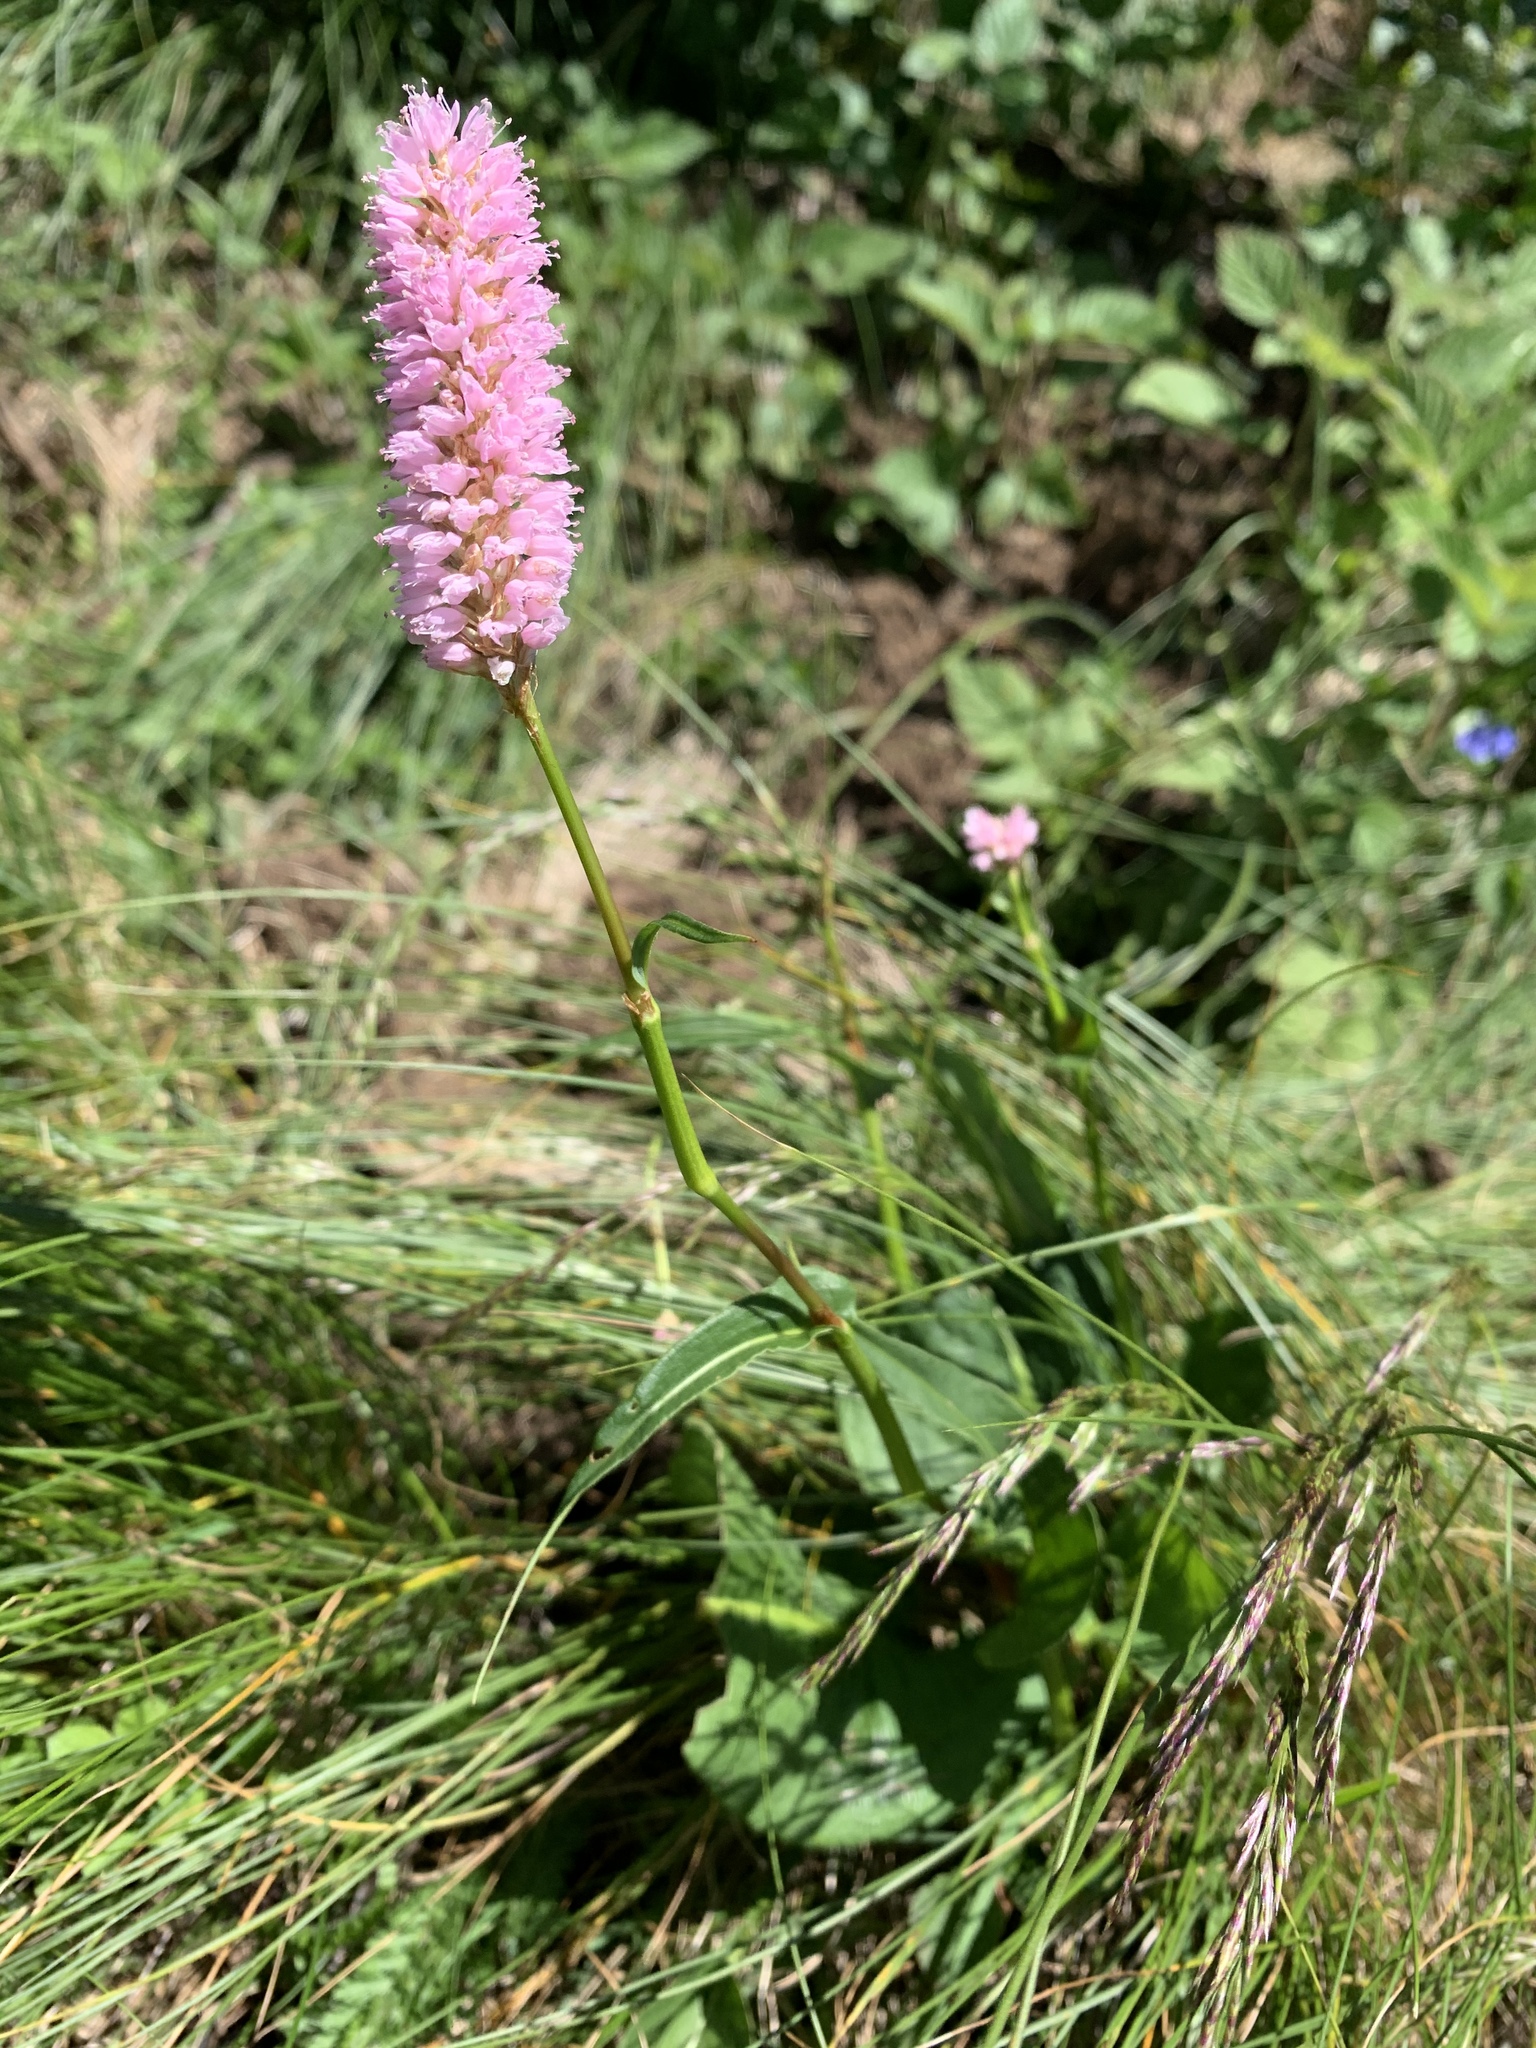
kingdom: Plantae
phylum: Tracheophyta
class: Magnoliopsida
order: Caryophyllales
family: Polygonaceae
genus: Bistorta
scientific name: Bistorta officinalis
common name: Common bistort
